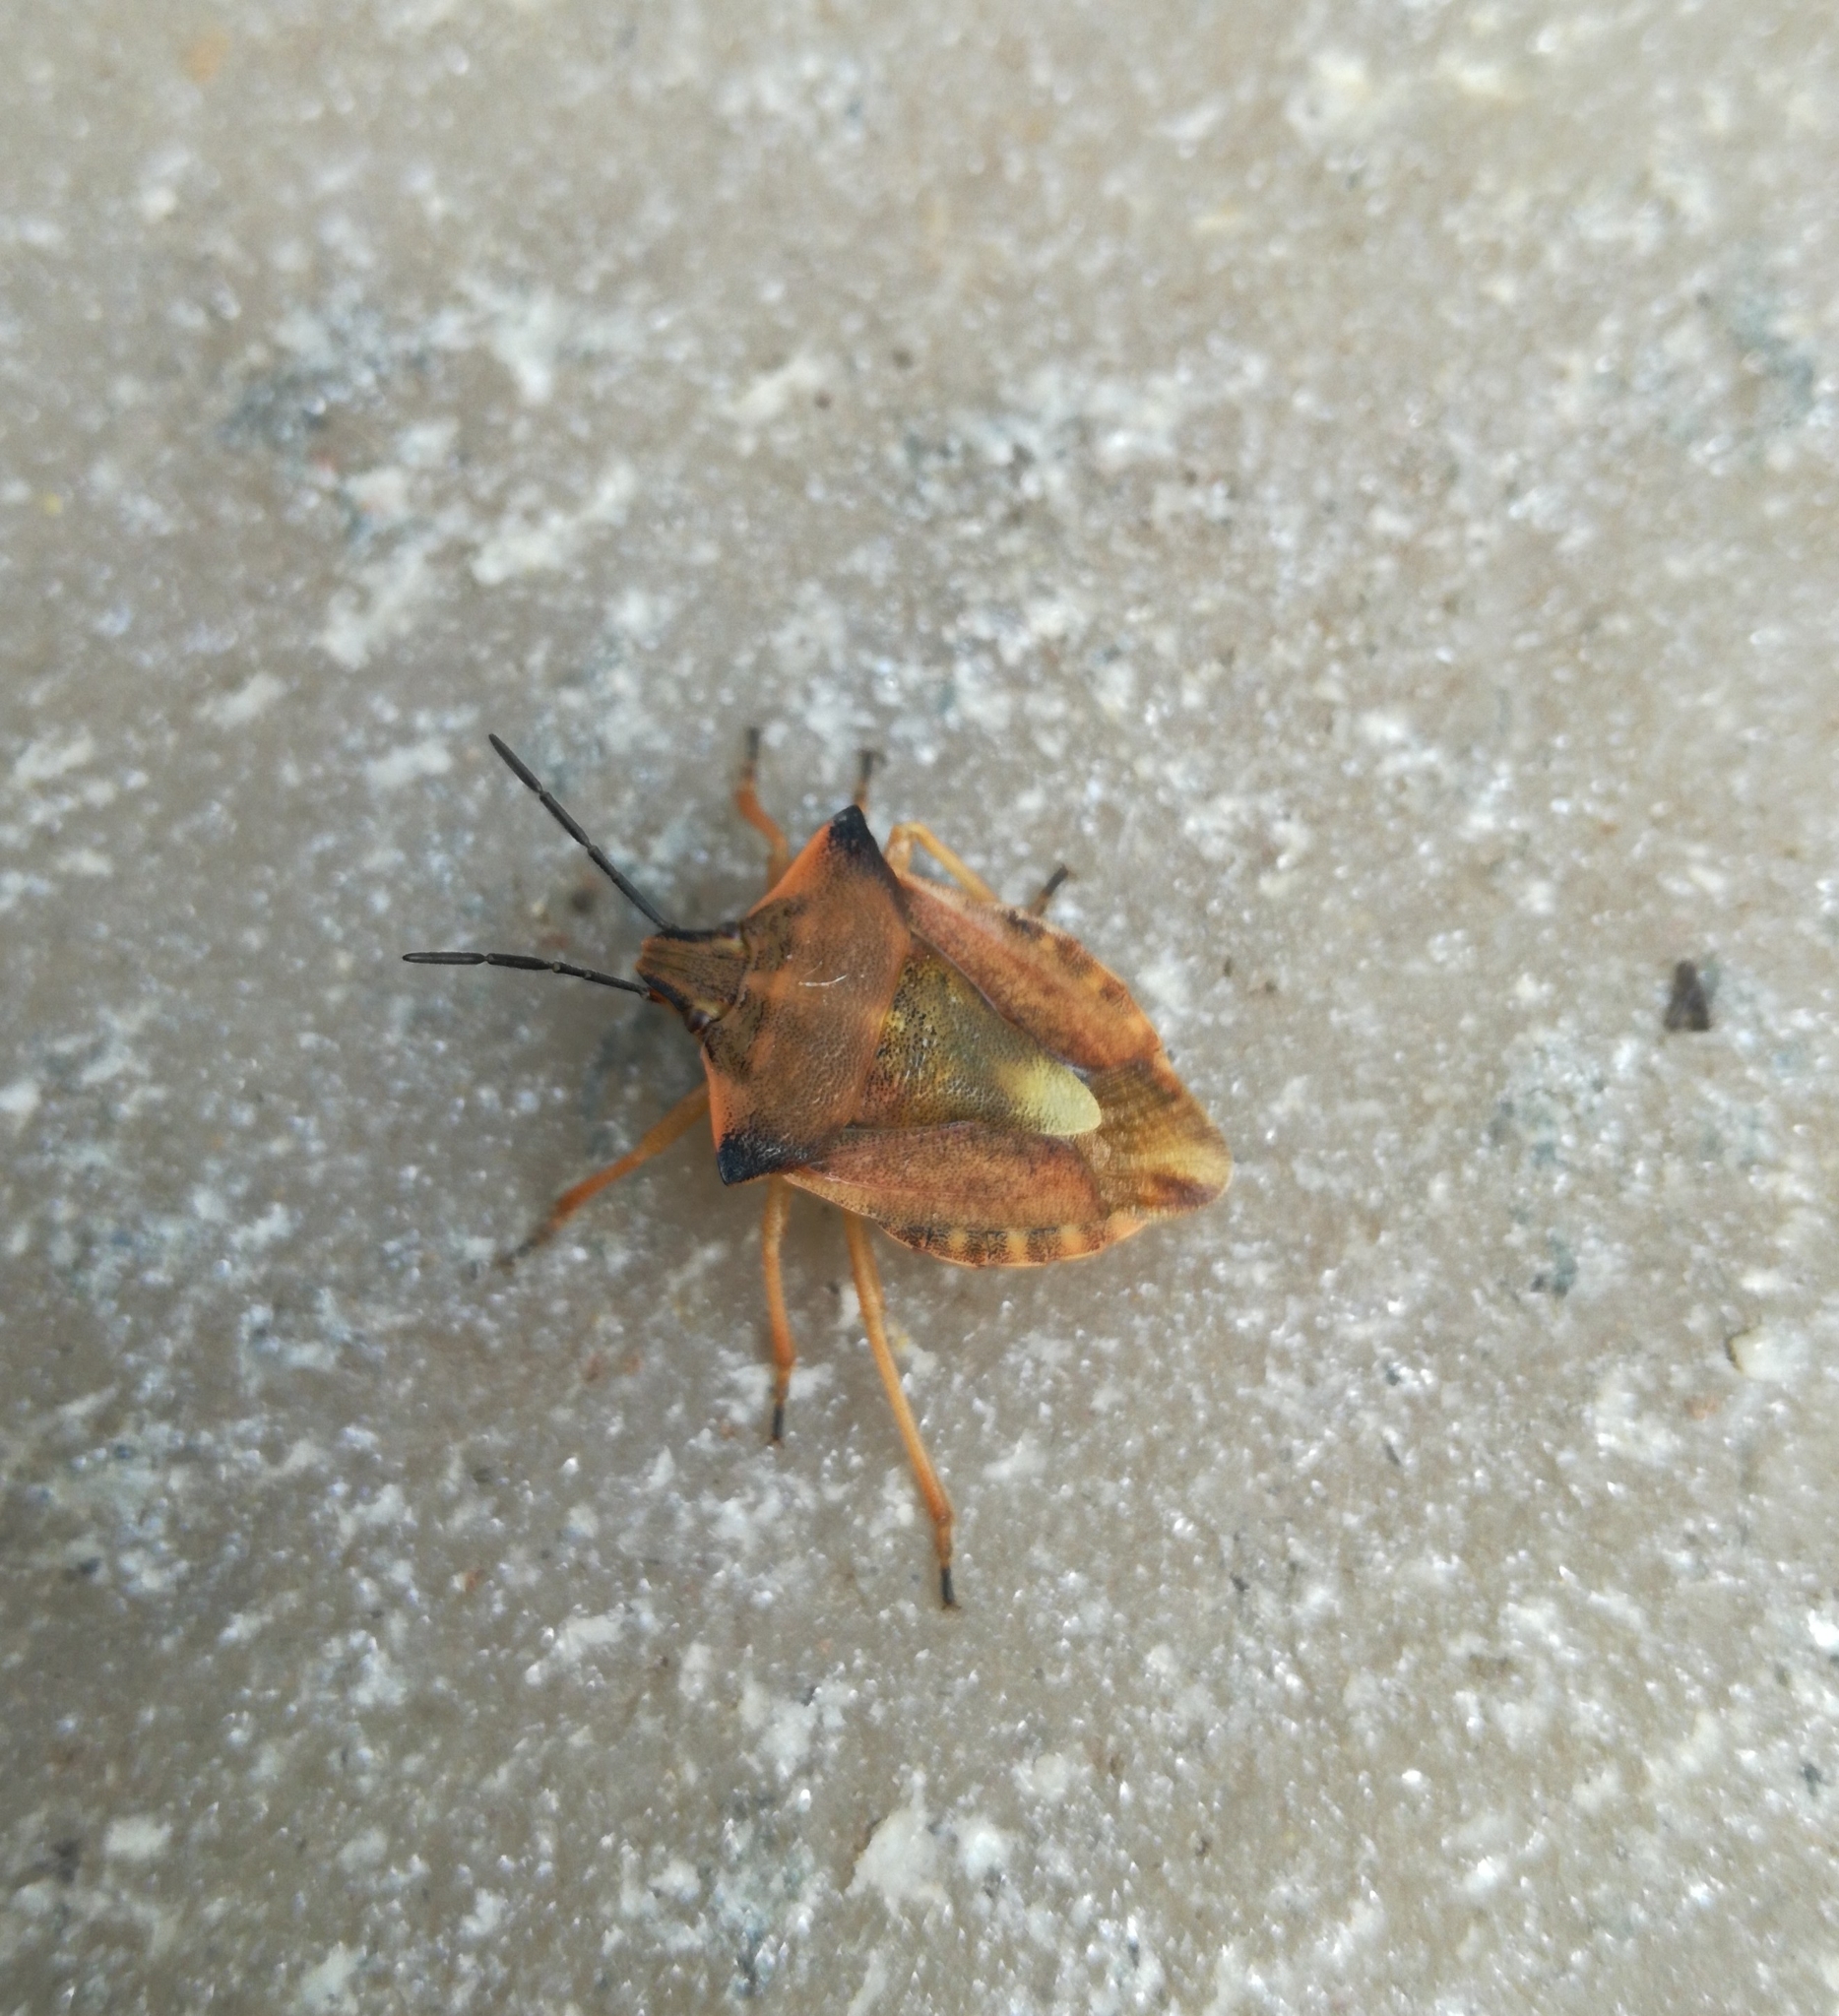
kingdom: Animalia
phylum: Arthropoda
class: Insecta
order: Hemiptera
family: Pentatomidae
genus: Carpocoris
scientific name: Carpocoris fuscispinus
